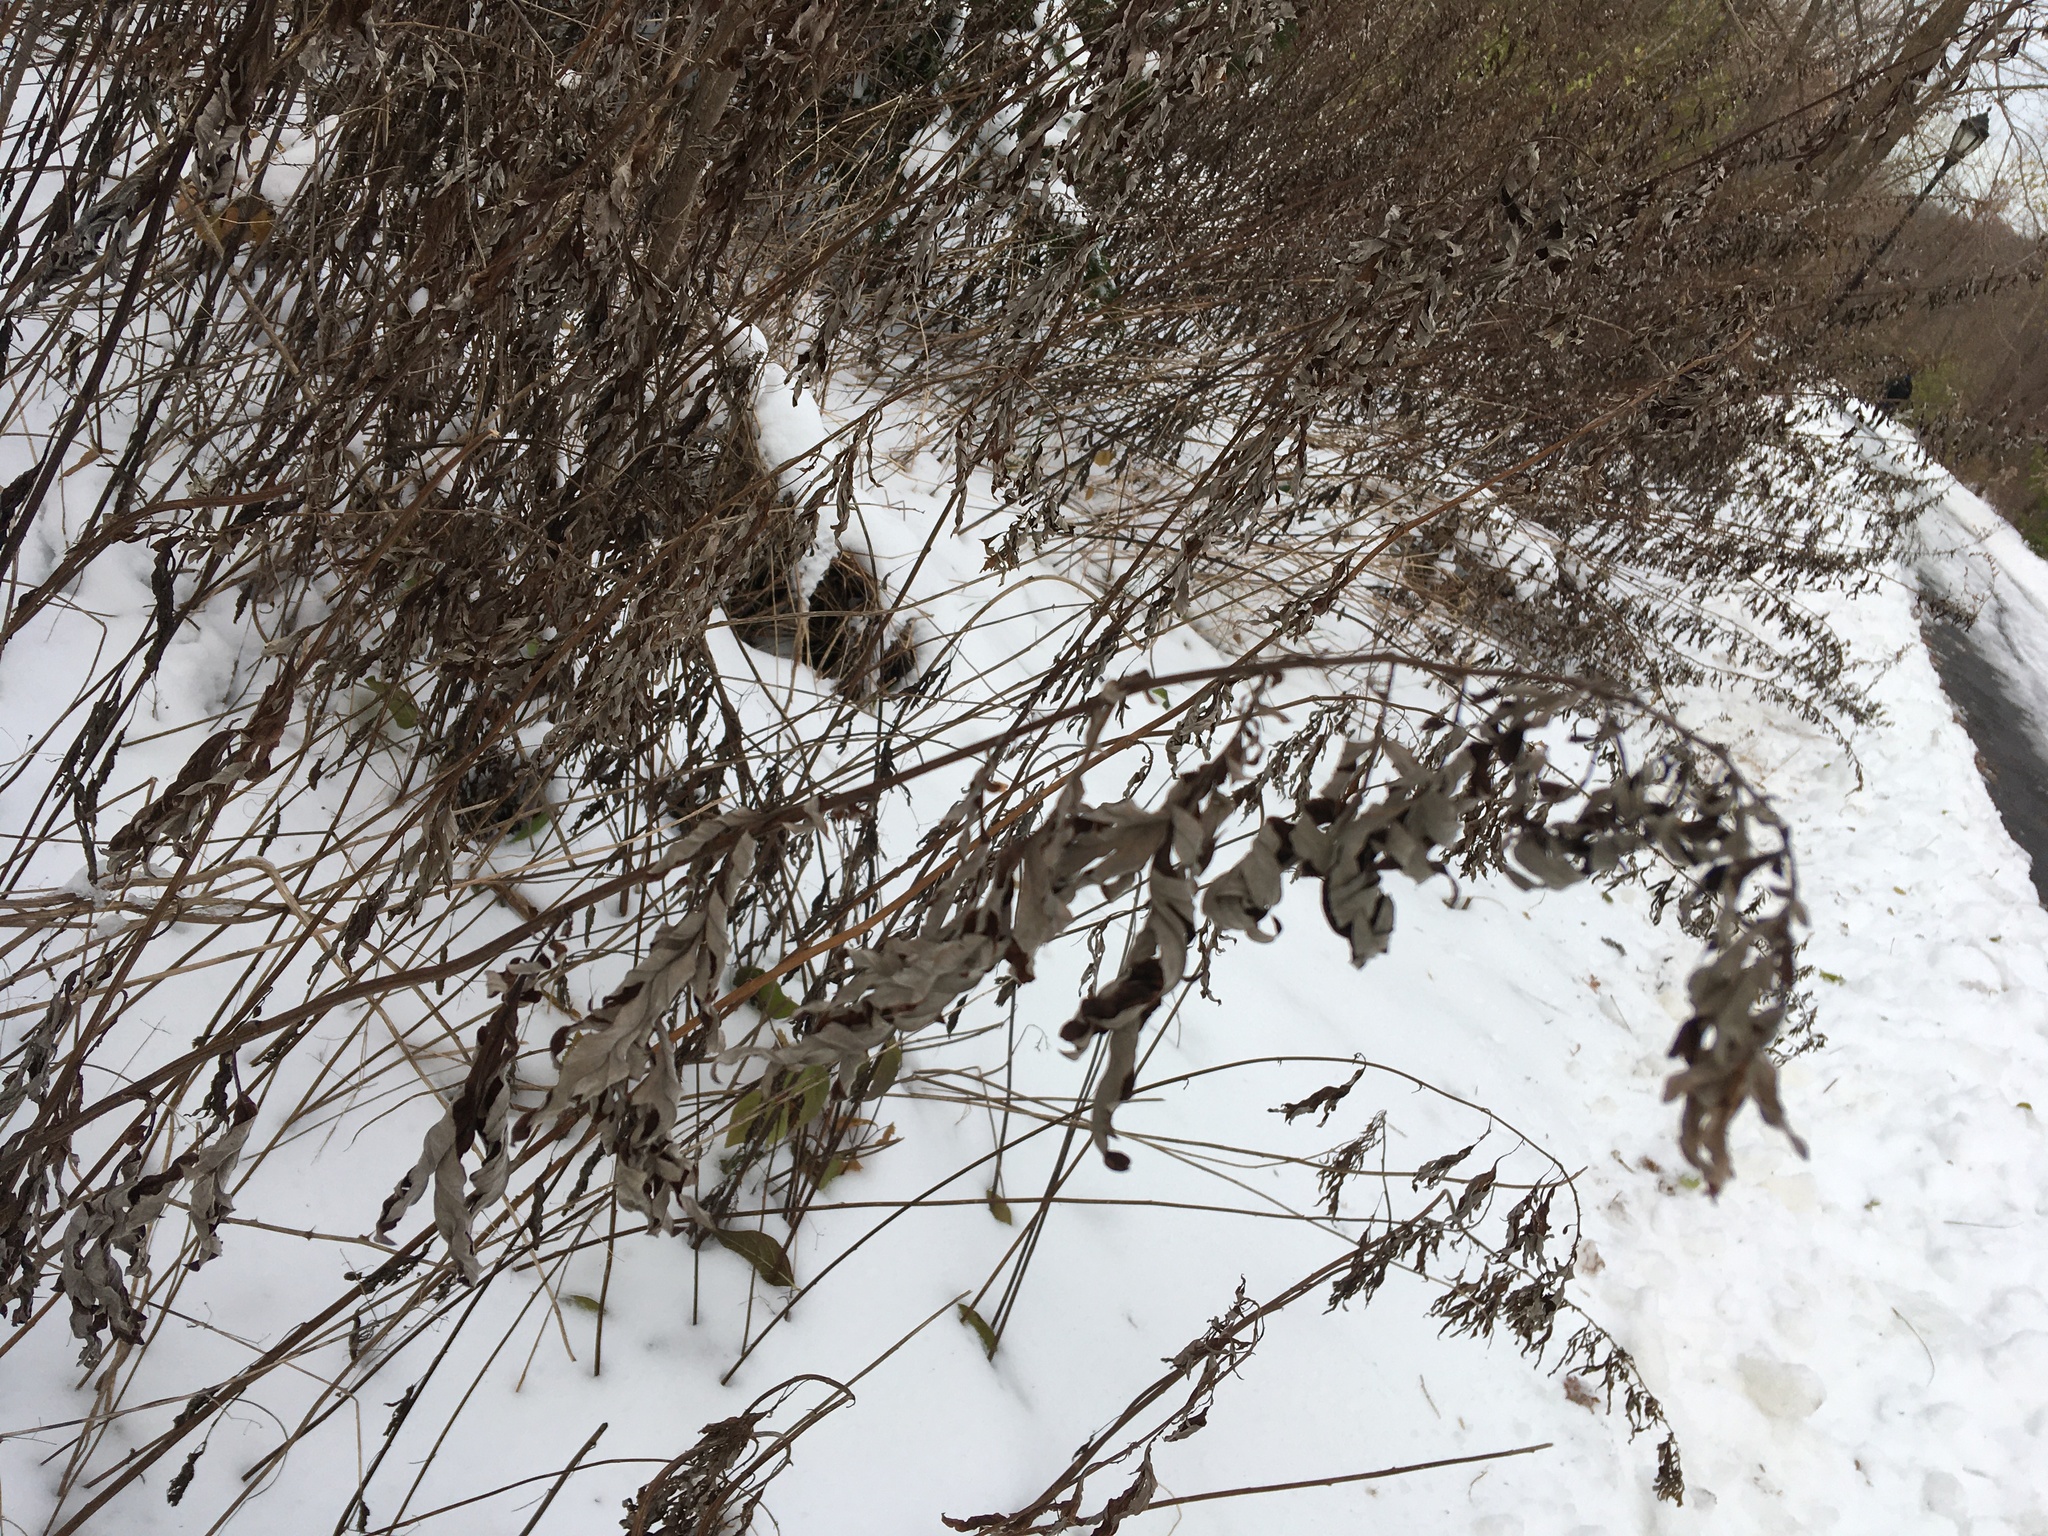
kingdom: Plantae
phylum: Tracheophyta
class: Magnoliopsida
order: Asterales
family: Asteraceae
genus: Artemisia
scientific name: Artemisia vulgaris
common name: Mugwort
